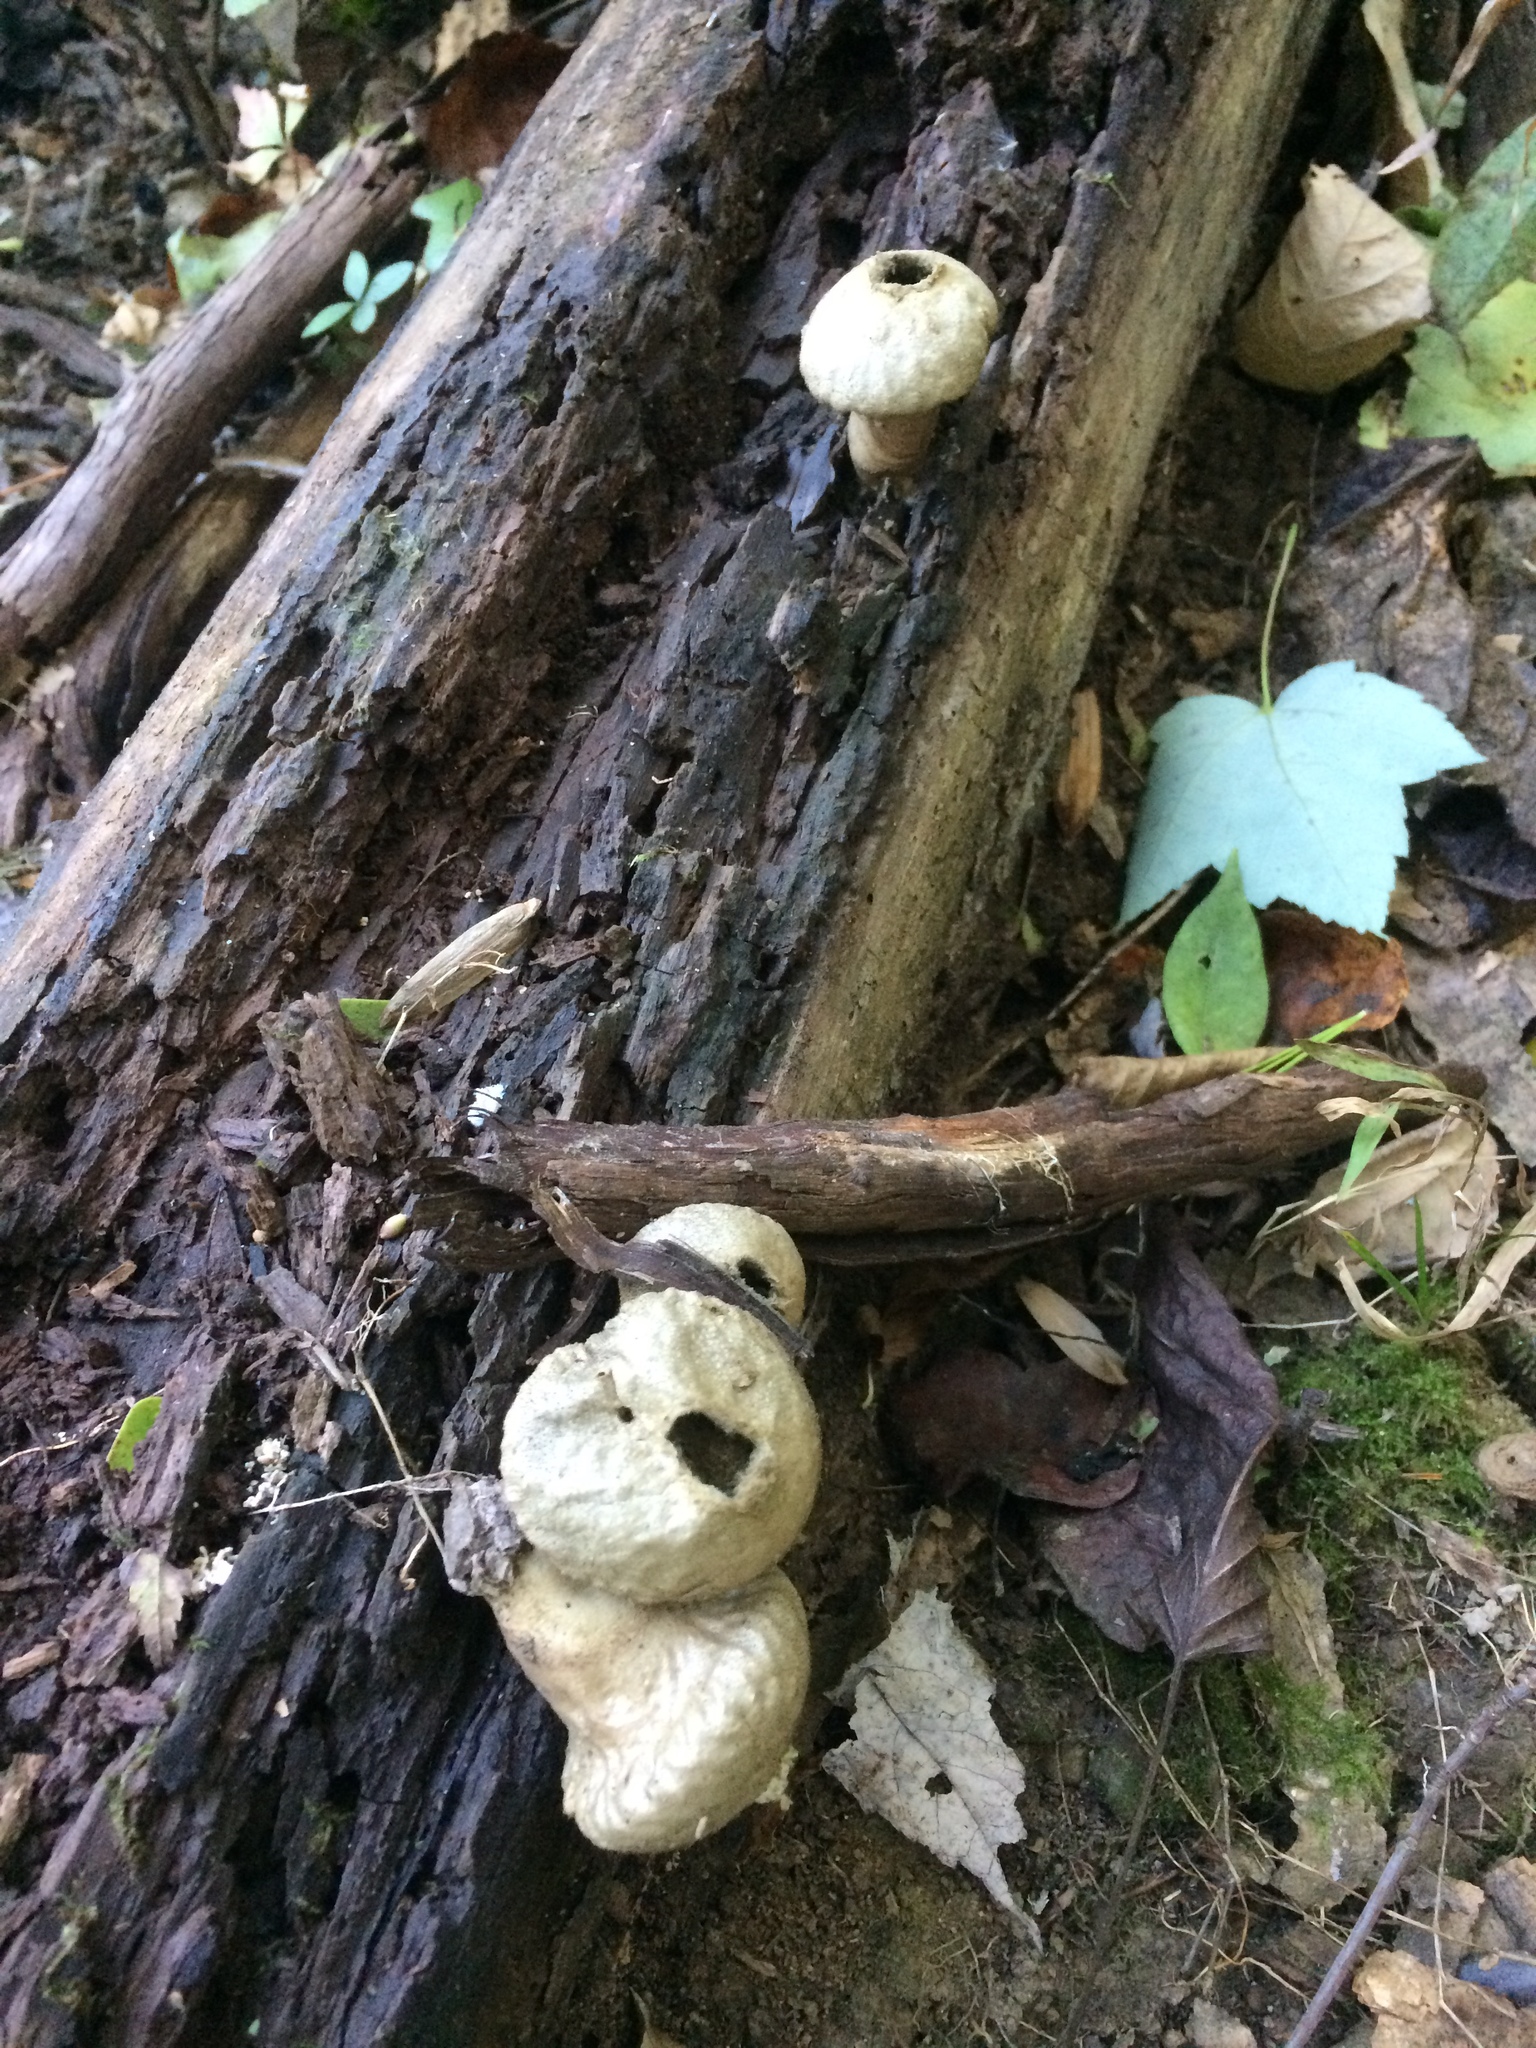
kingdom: Fungi
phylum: Basidiomycota
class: Agaricomycetes
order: Agaricales
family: Lycoperdaceae
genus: Apioperdon
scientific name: Apioperdon pyriforme
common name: Pear-shaped puffball
